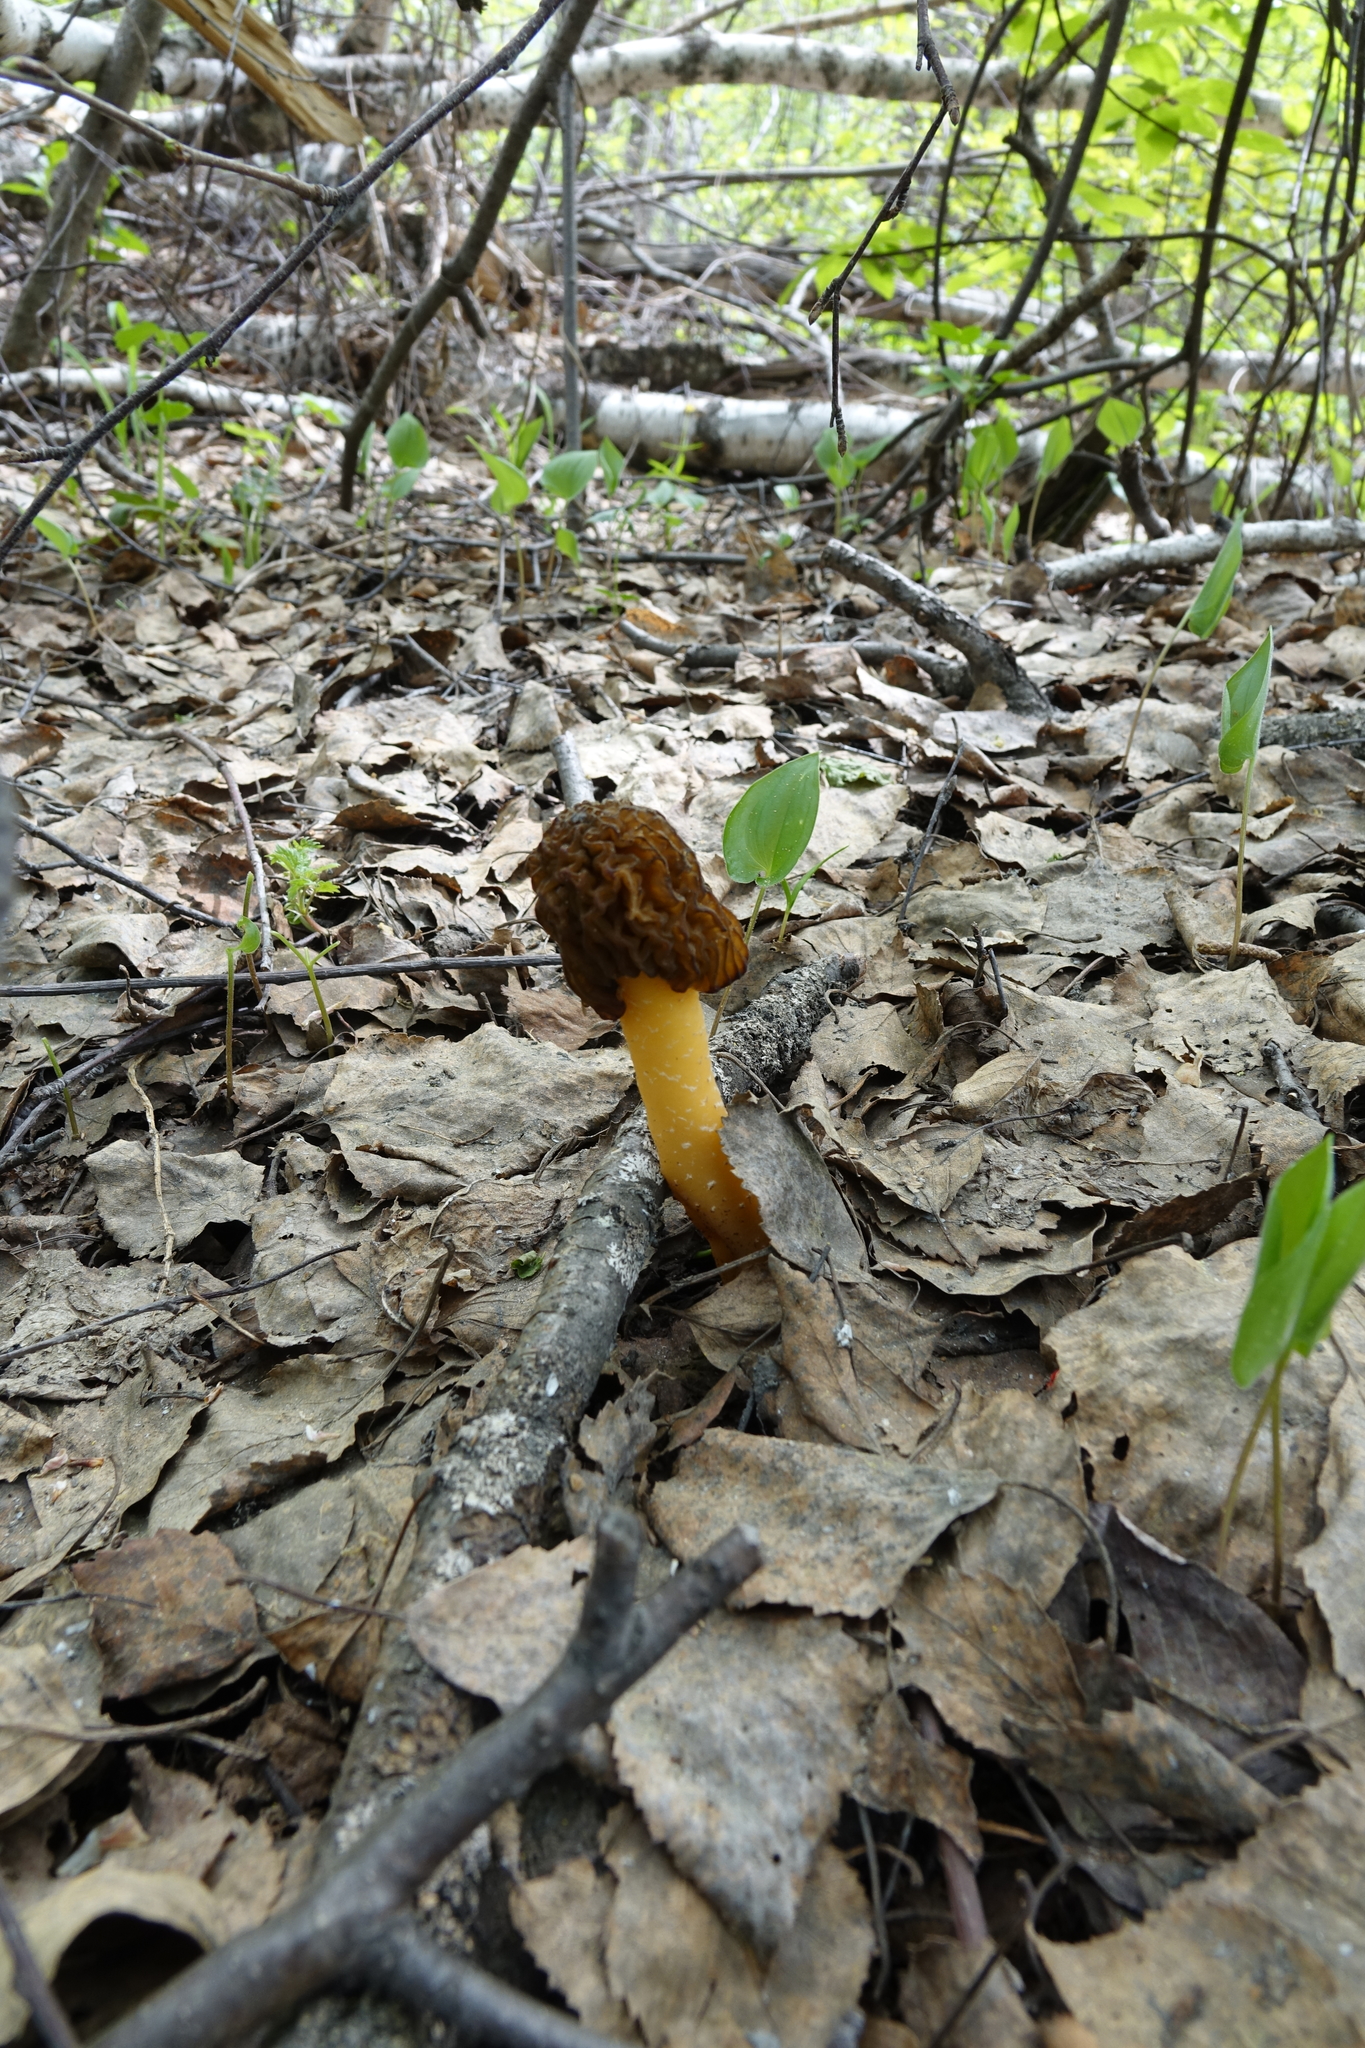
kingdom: Fungi
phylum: Ascomycota
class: Pezizomycetes
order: Pezizales
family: Morchellaceae
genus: Verpa
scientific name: Verpa bohemica
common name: Wrinkled thimble morel
